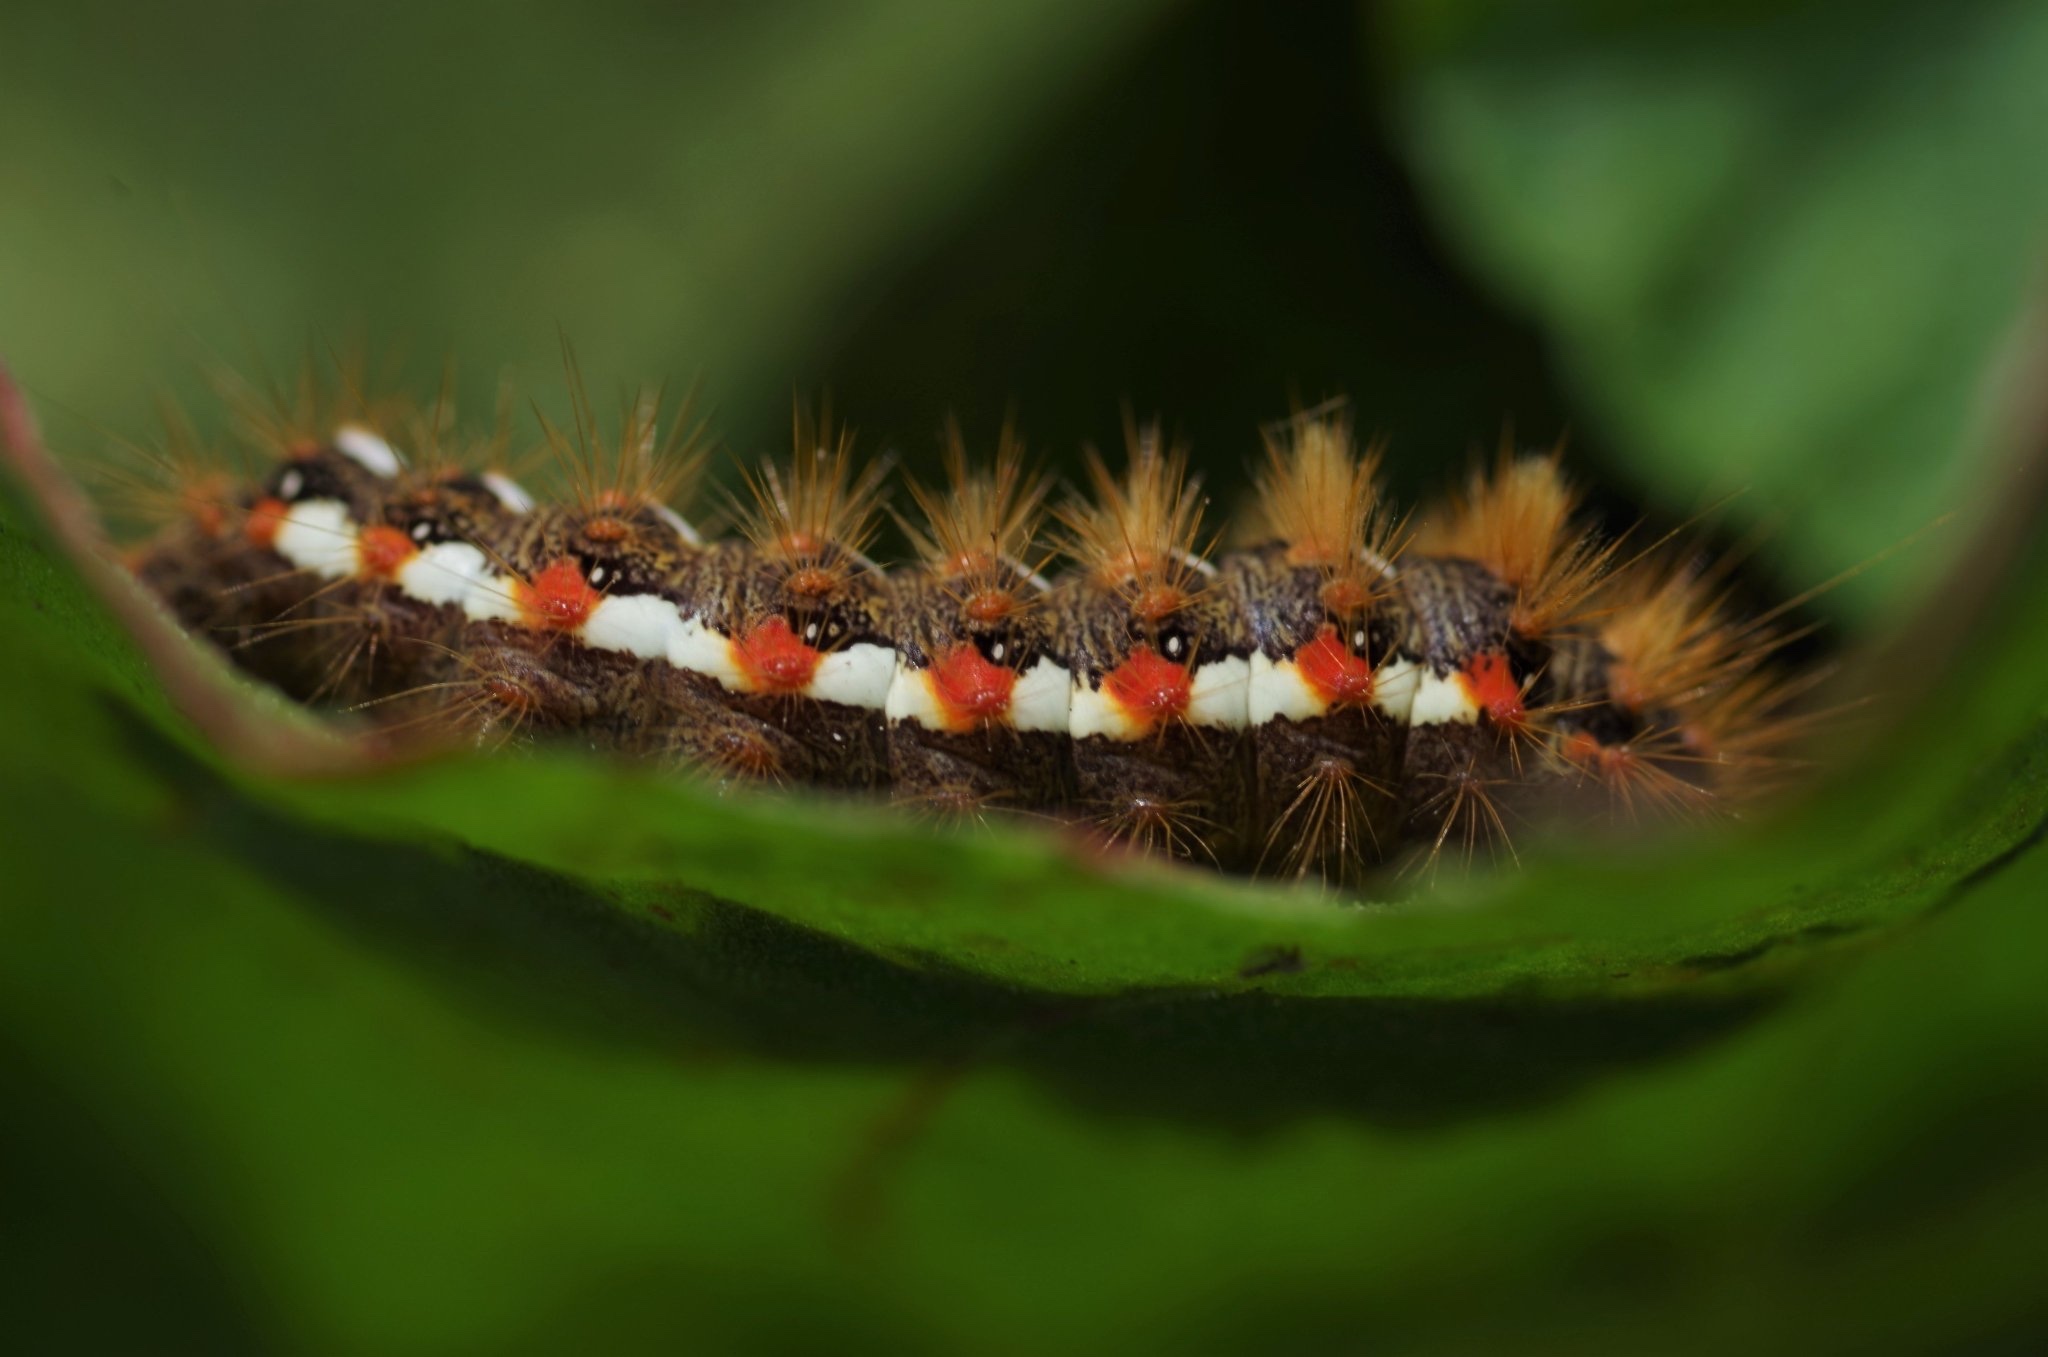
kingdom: Animalia
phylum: Arthropoda
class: Insecta
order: Lepidoptera
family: Noctuidae
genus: Acronicta
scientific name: Acronicta rumicis
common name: Knot grass
